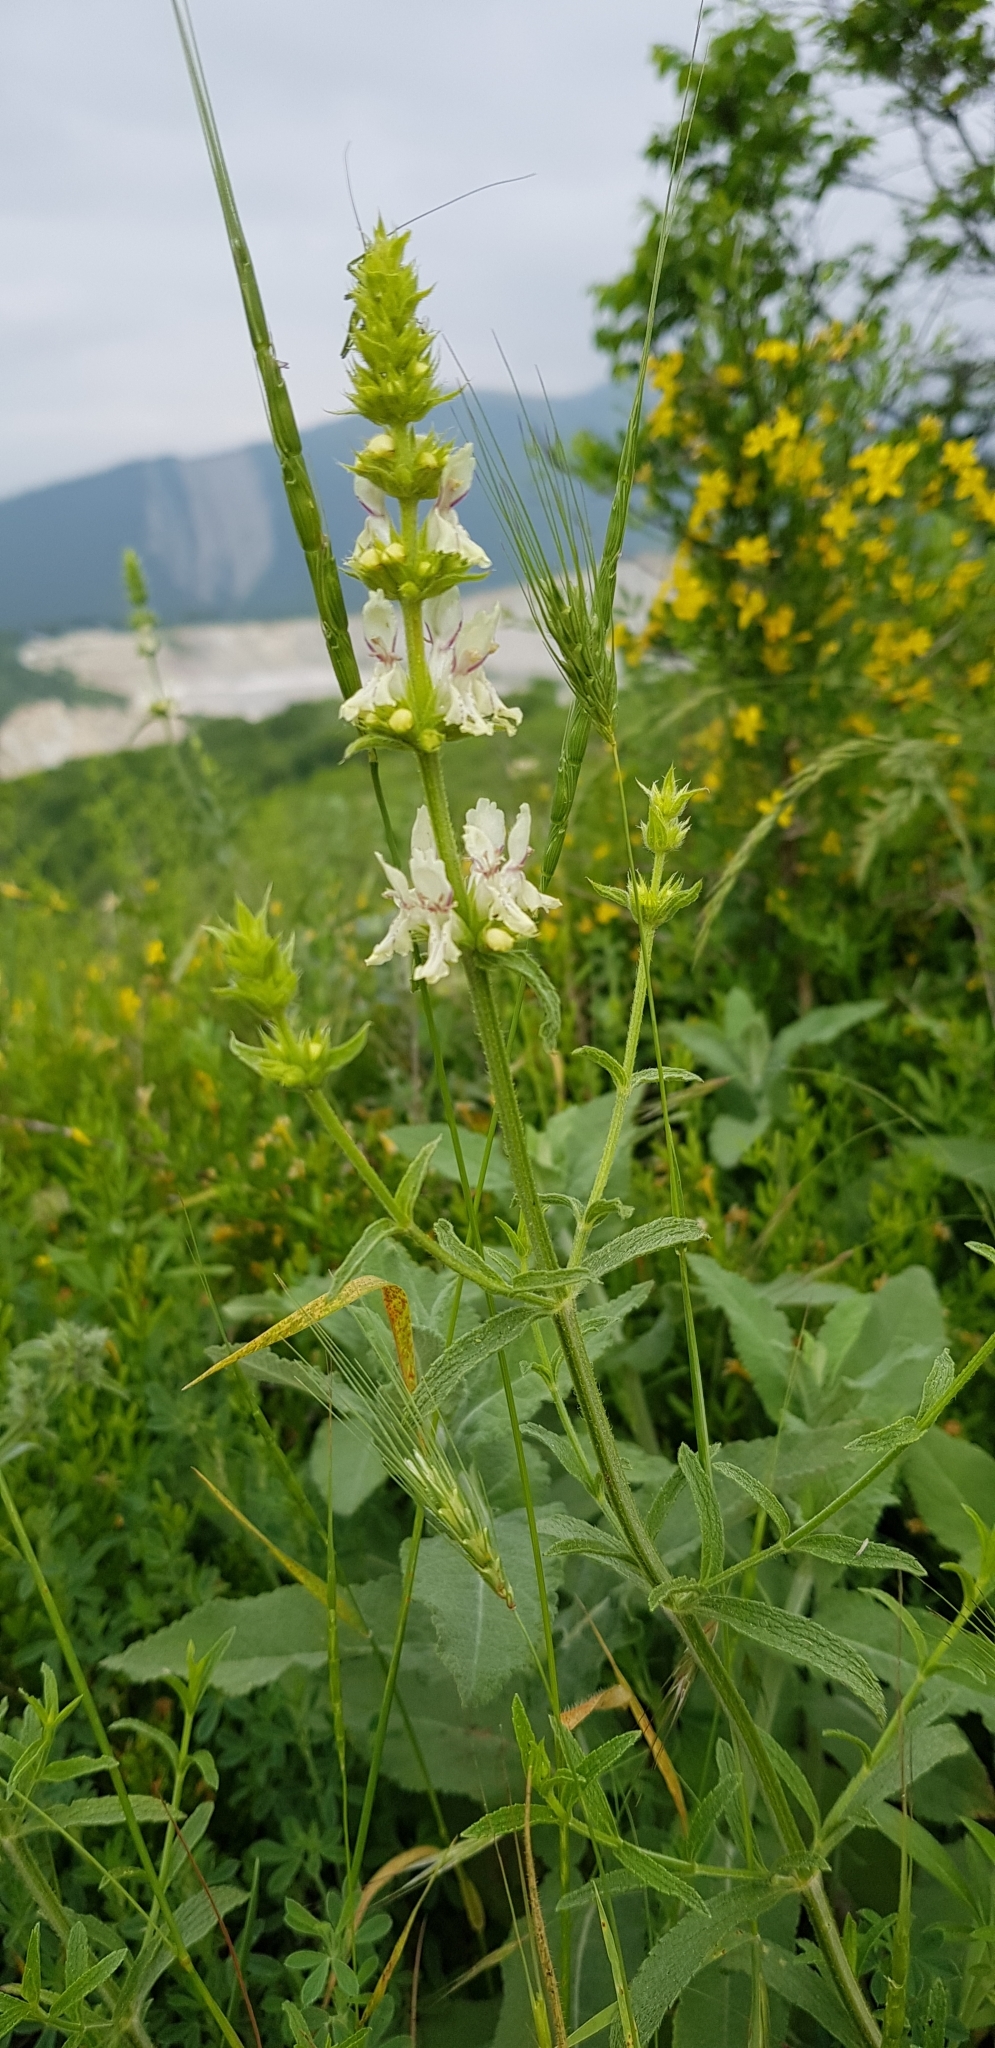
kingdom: Plantae
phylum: Tracheophyta
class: Magnoliopsida
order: Lamiales
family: Lamiaceae
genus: Stachys
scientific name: Stachys atherocalyx
